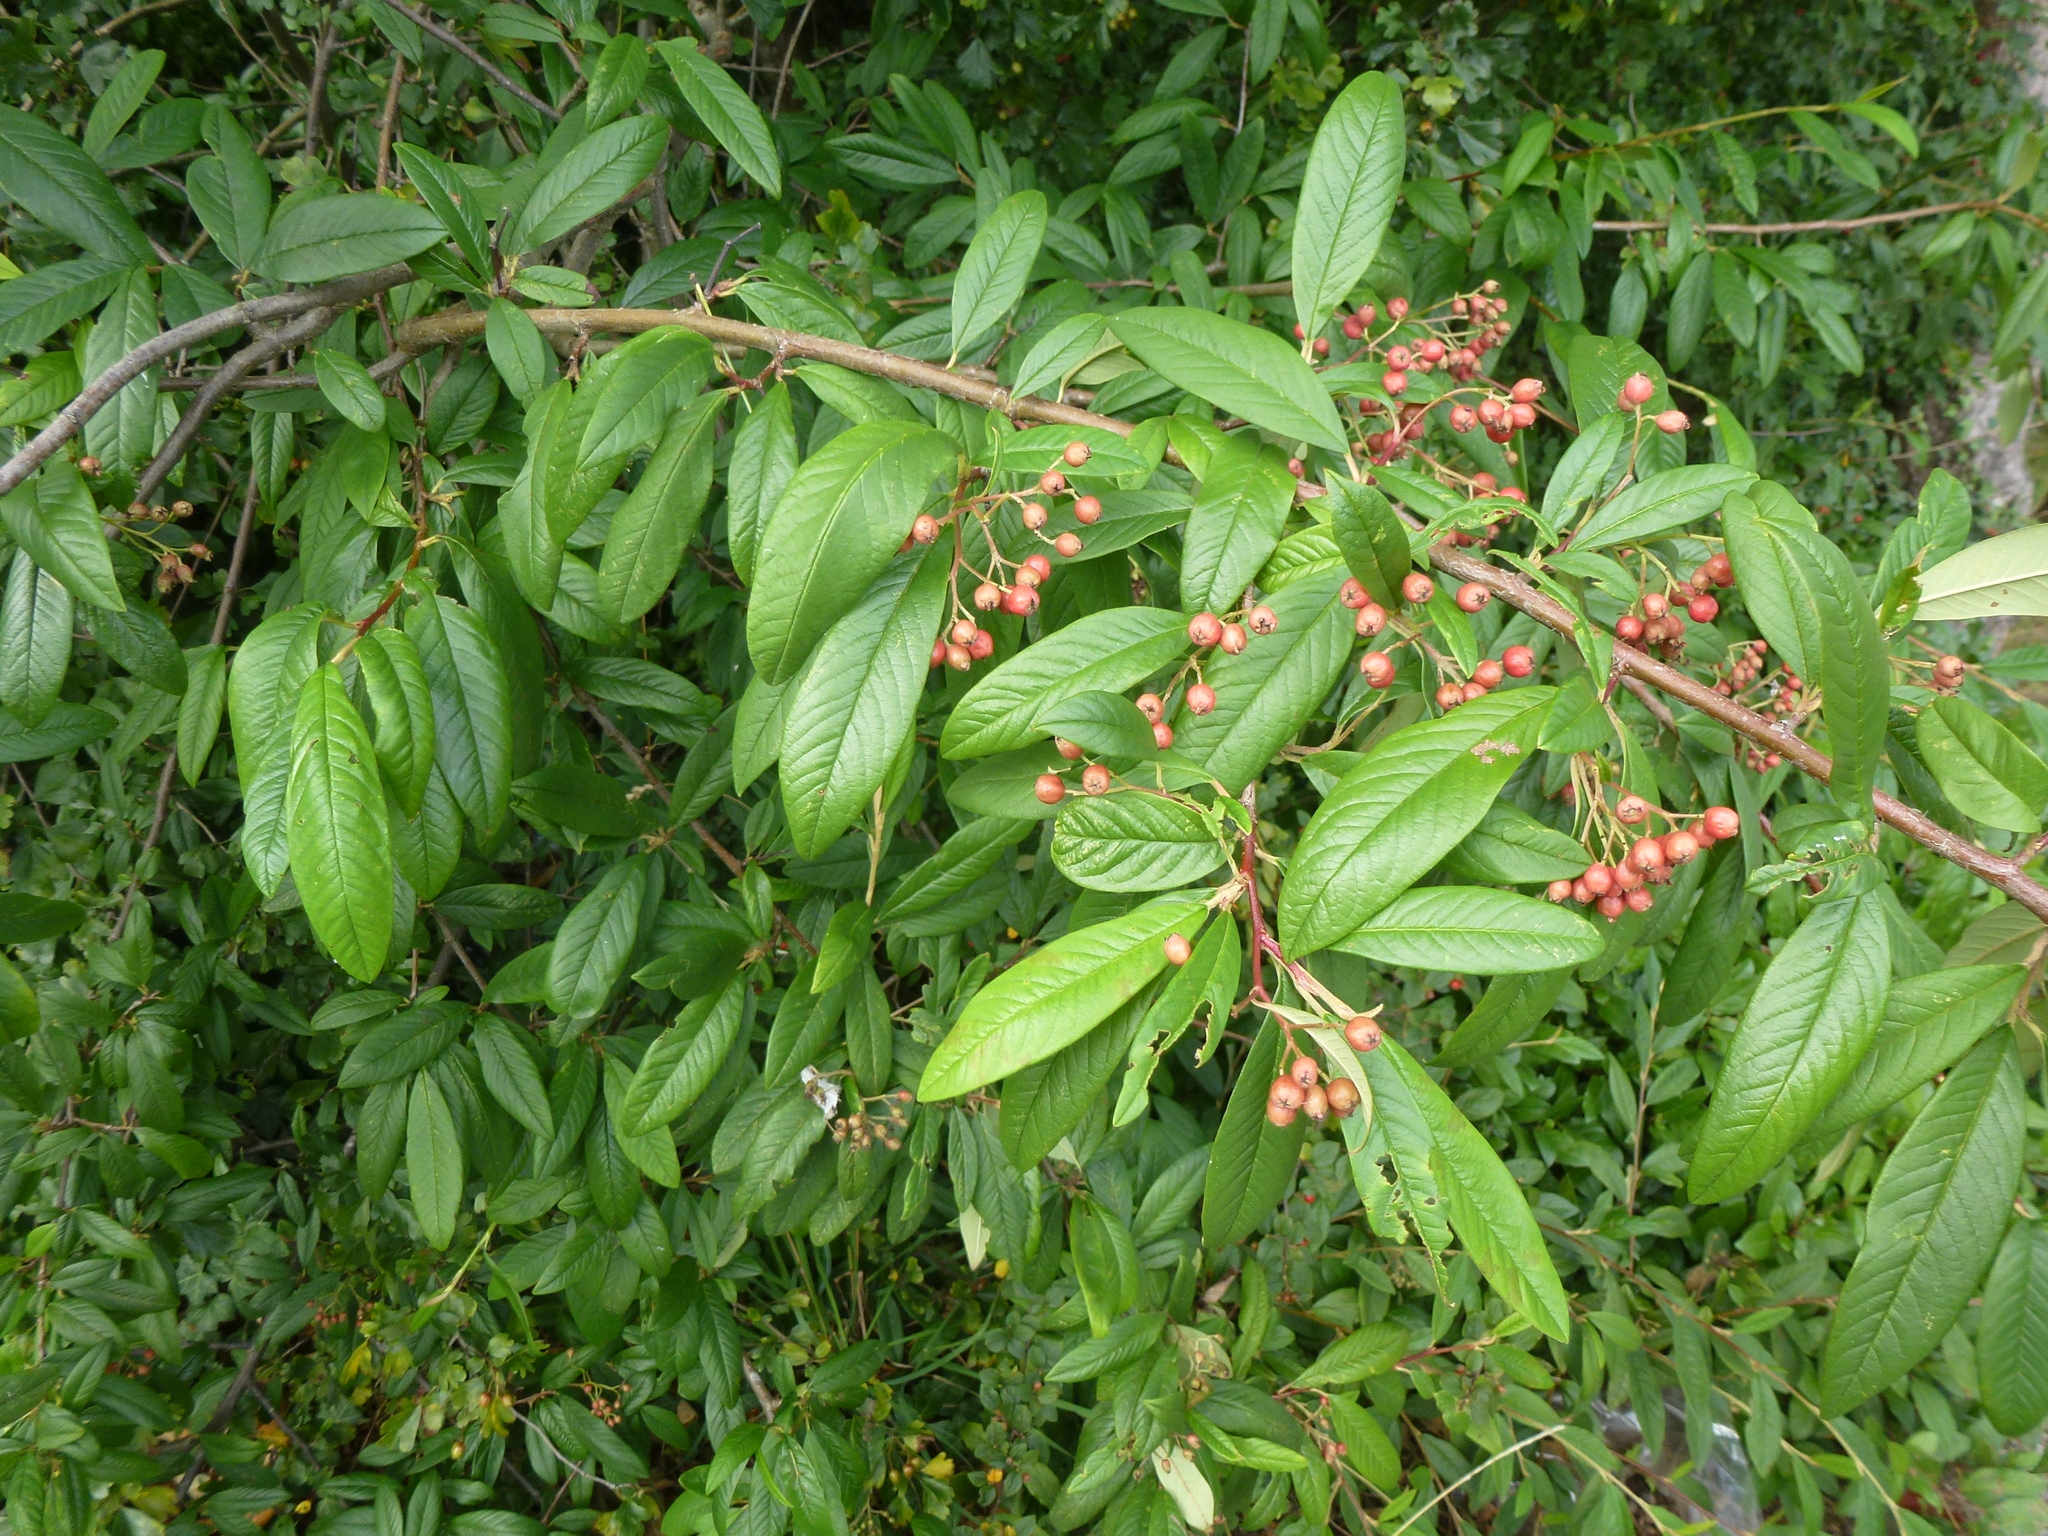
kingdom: Plantae
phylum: Tracheophyta
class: Magnoliopsida
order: Rosales
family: Rosaceae
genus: Cotoneaster
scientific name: Cotoneaster watereri
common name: Waterer's cotoneaster
